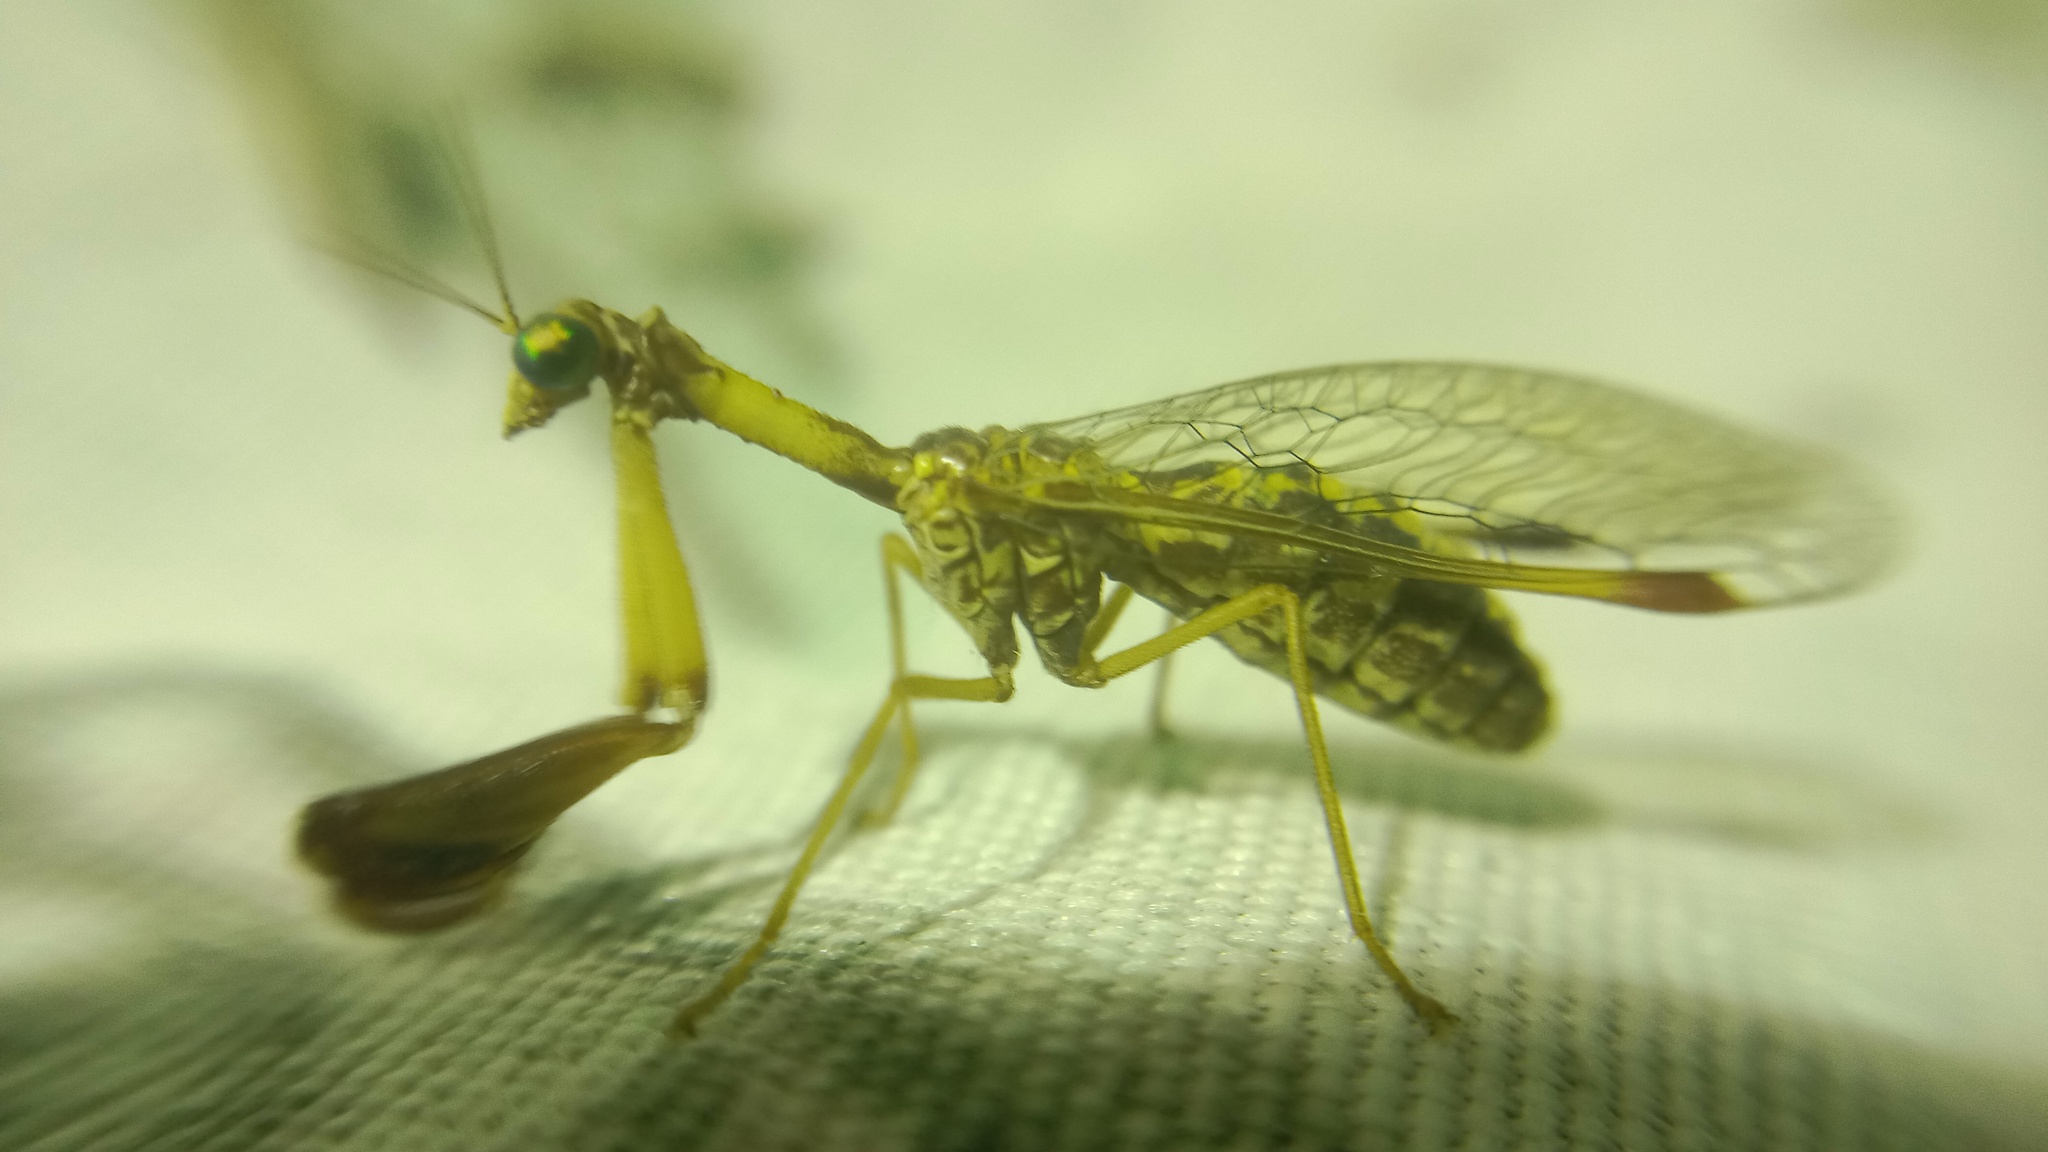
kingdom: Animalia
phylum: Arthropoda
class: Insecta
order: Neuroptera
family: Mantispidae
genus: Mantispa
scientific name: Mantispa styriaca
